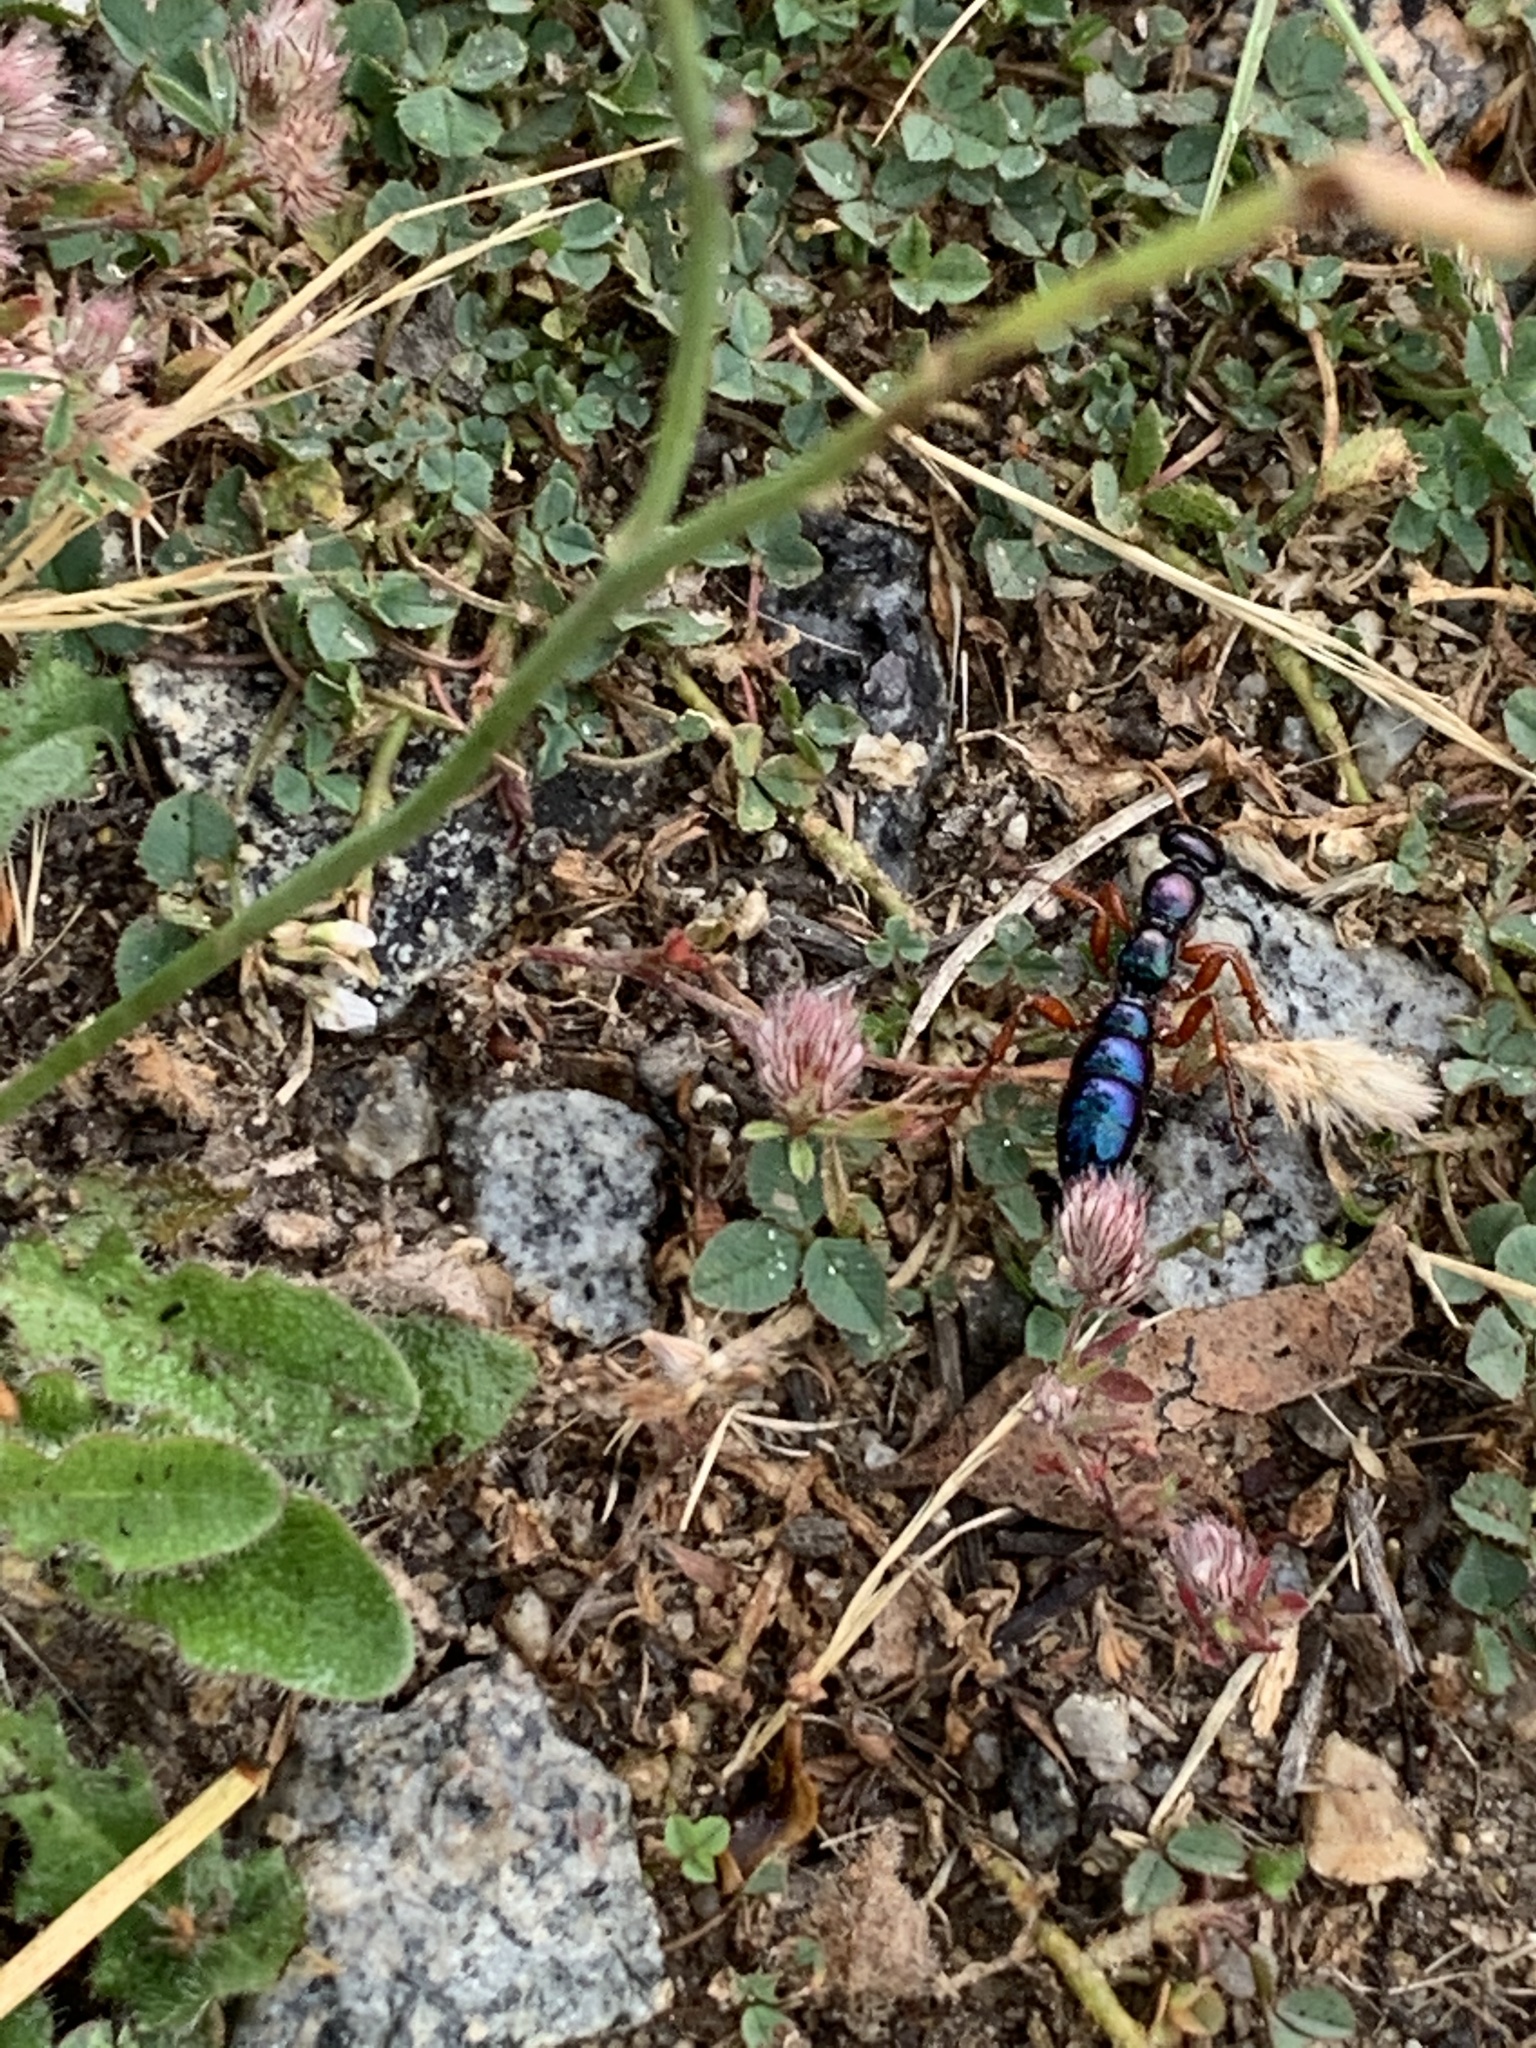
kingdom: Animalia
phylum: Arthropoda
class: Insecta
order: Hymenoptera
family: Tiphiidae
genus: Diamma
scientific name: Diamma
